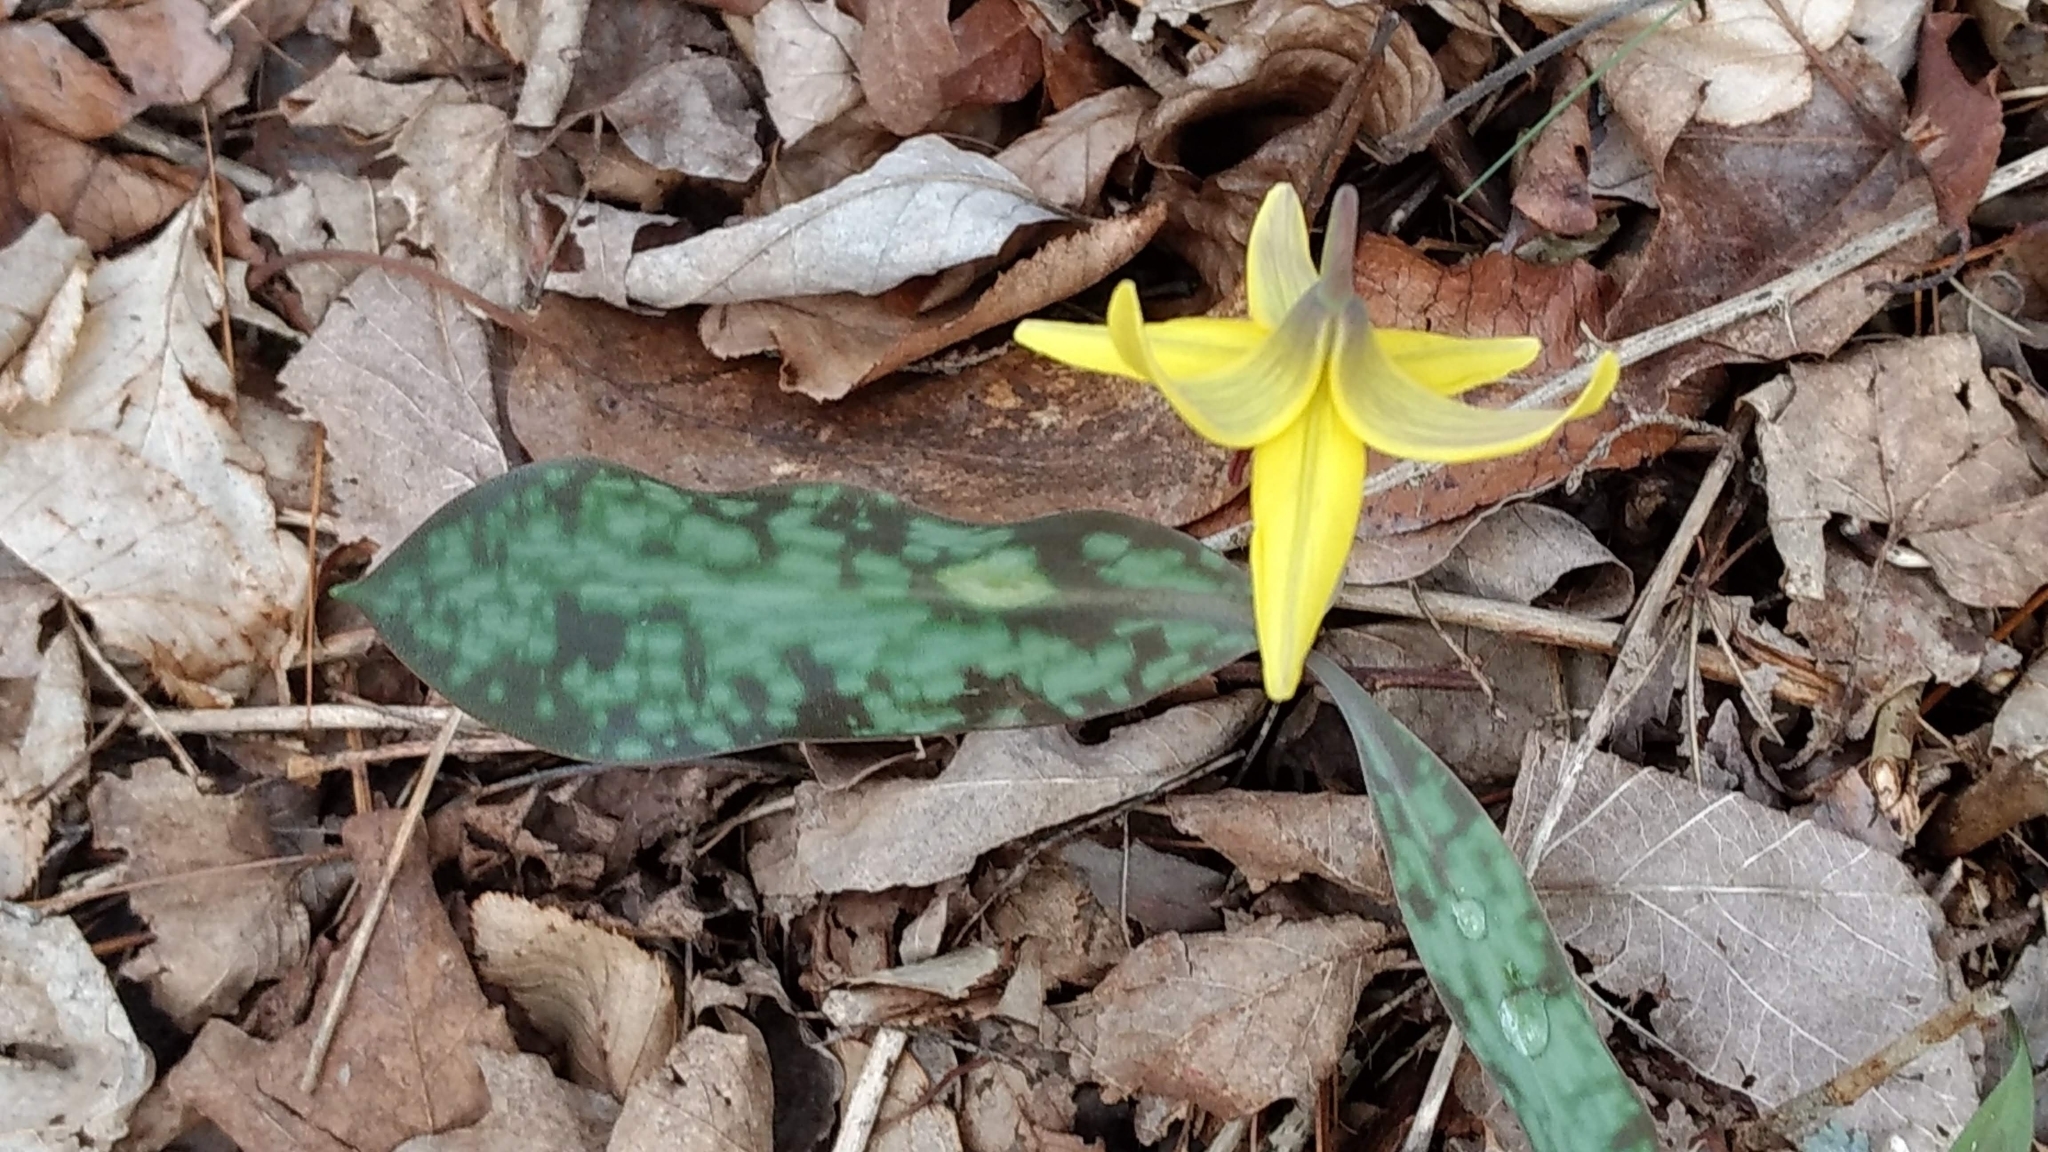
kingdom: Plantae
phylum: Tracheophyta
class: Liliopsida
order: Liliales
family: Liliaceae
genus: Erythronium
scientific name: Erythronium americanum
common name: Yellow adder's-tongue
